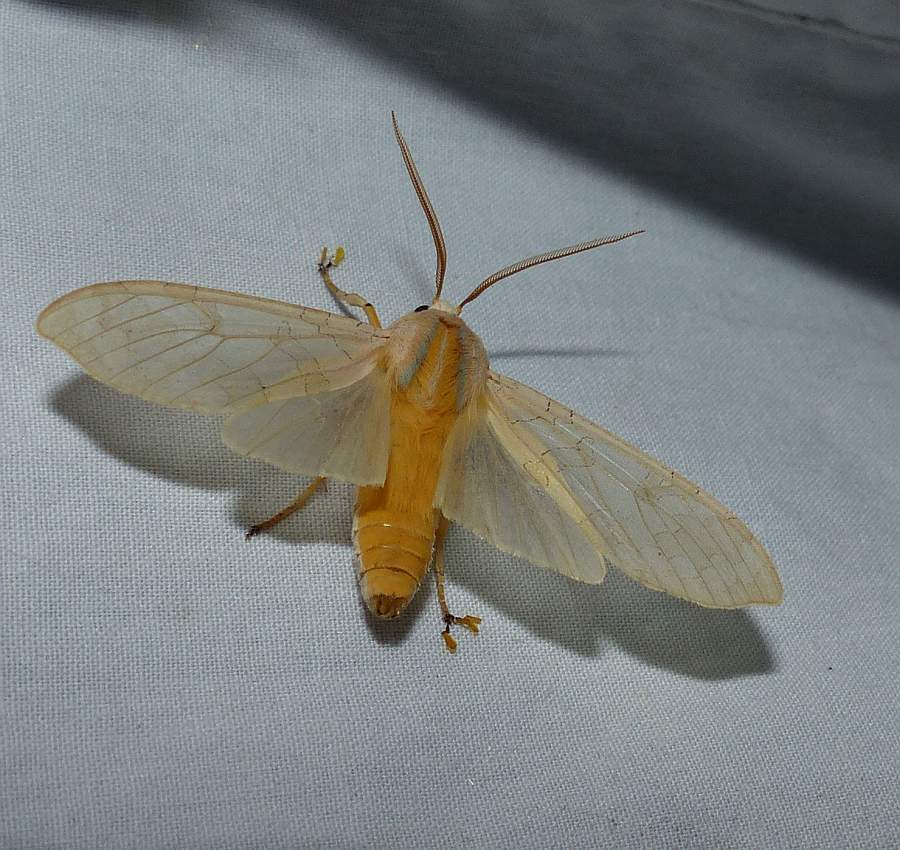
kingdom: Animalia
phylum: Arthropoda
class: Insecta
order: Lepidoptera
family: Erebidae
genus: Halysidota
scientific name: Halysidota tessellaris
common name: Banded tussock moth
